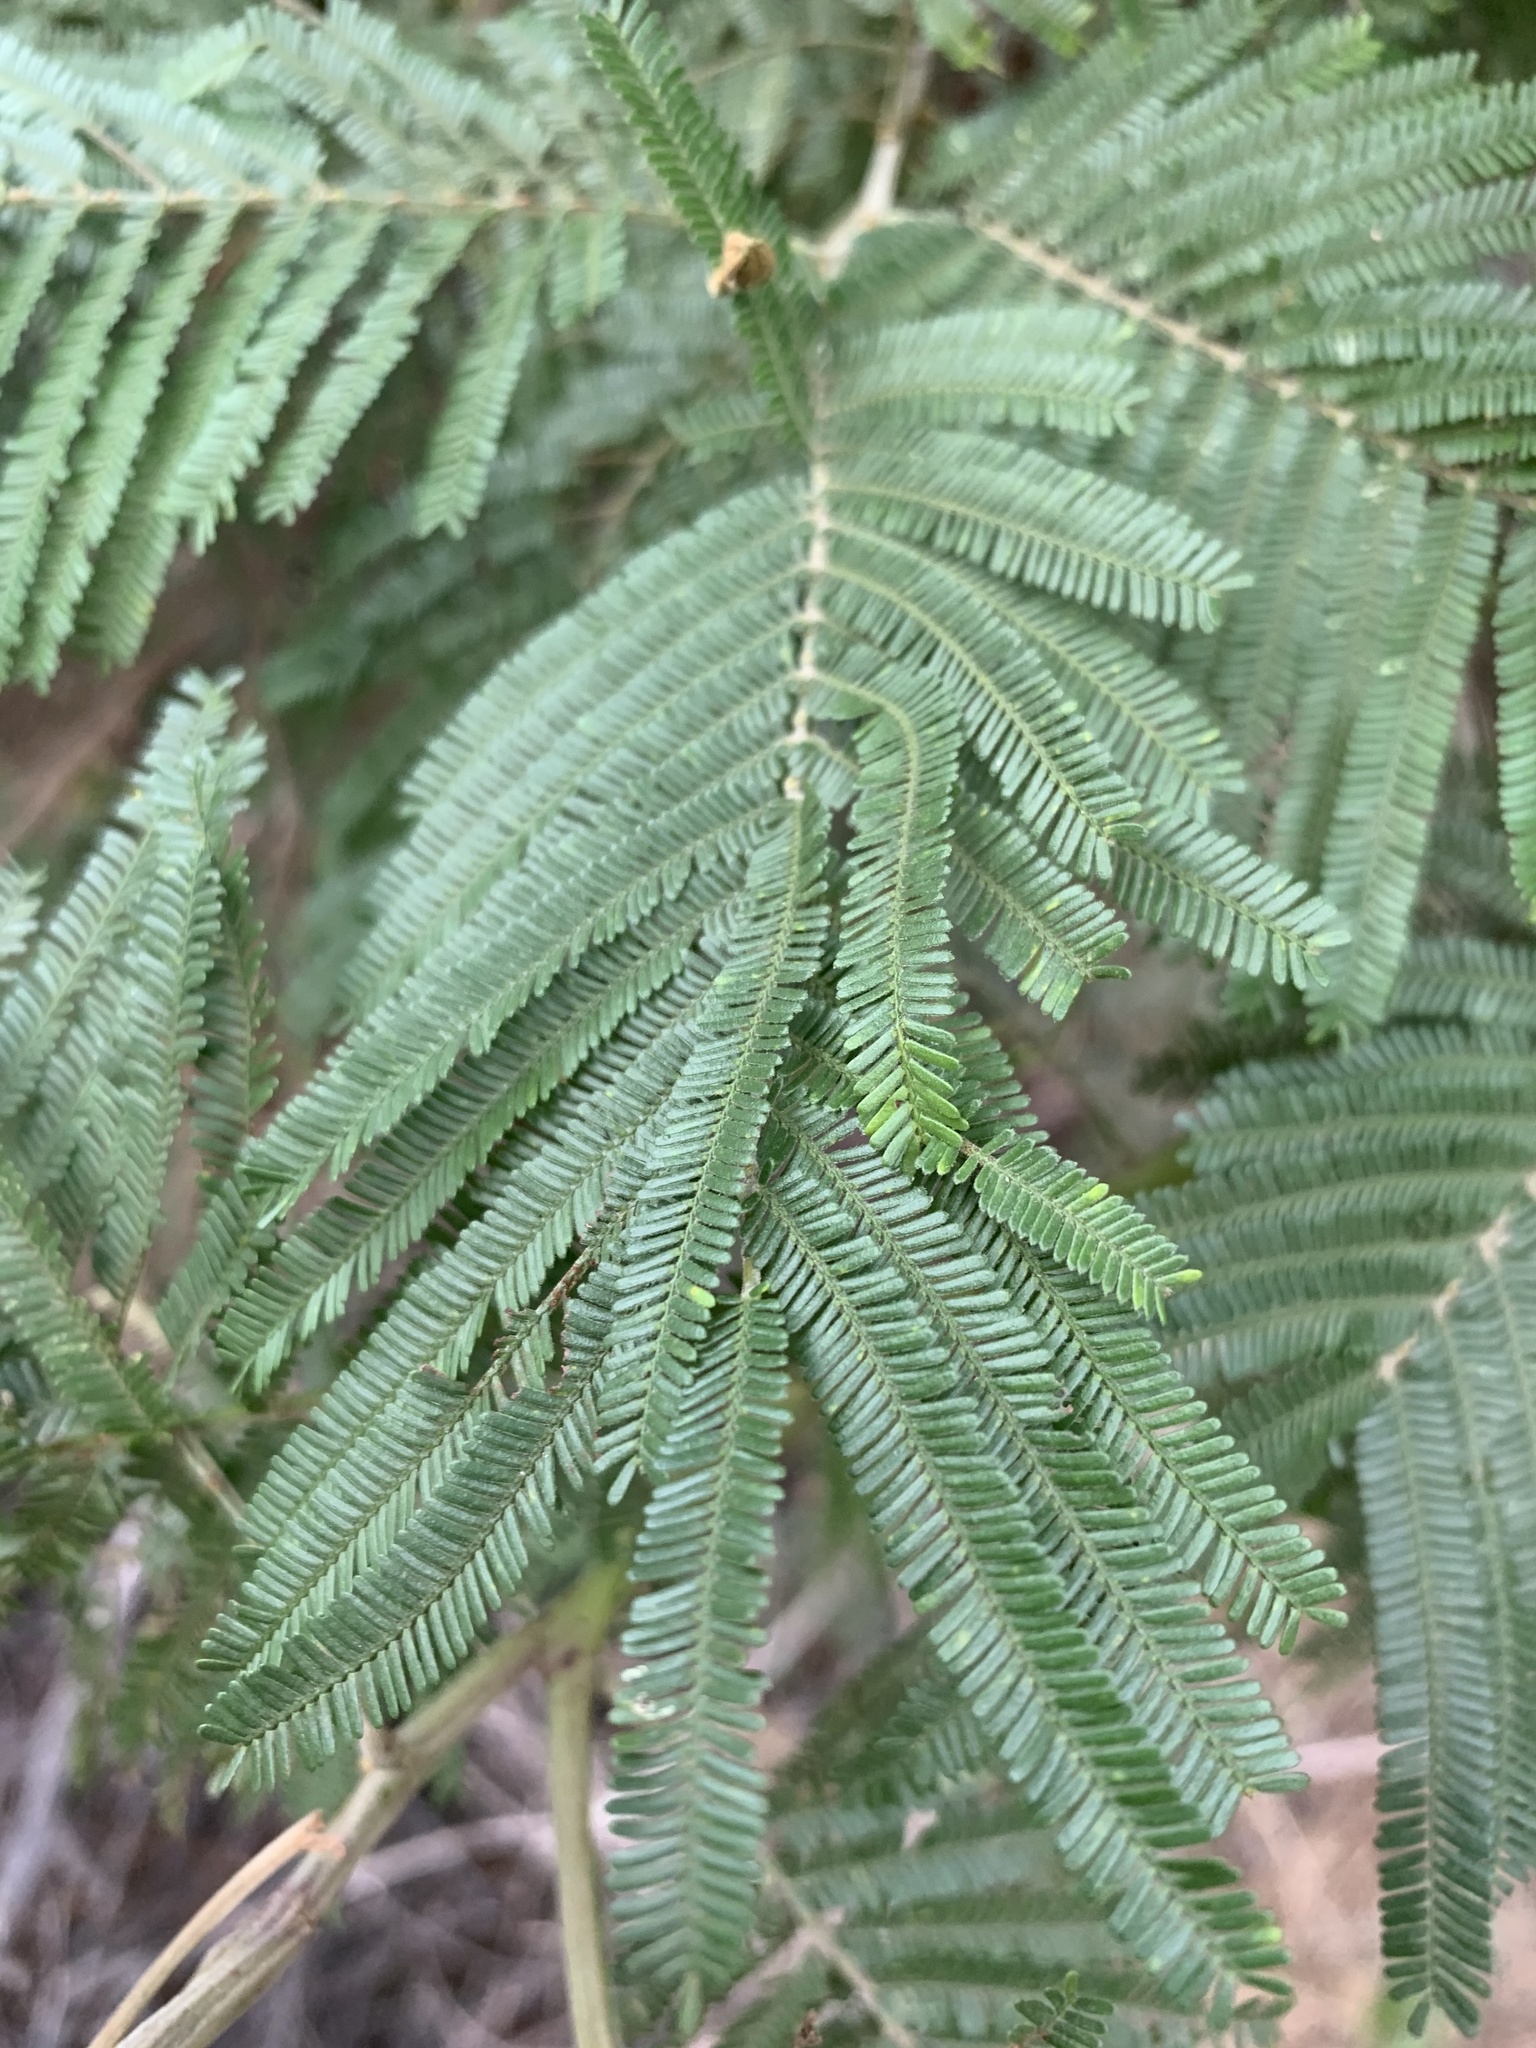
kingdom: Plantae
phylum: Tracheophyta
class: Magnoliopsida
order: Fabales
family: Fabaceae
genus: Acacia
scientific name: Acacia mearnsii
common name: Black wattle
